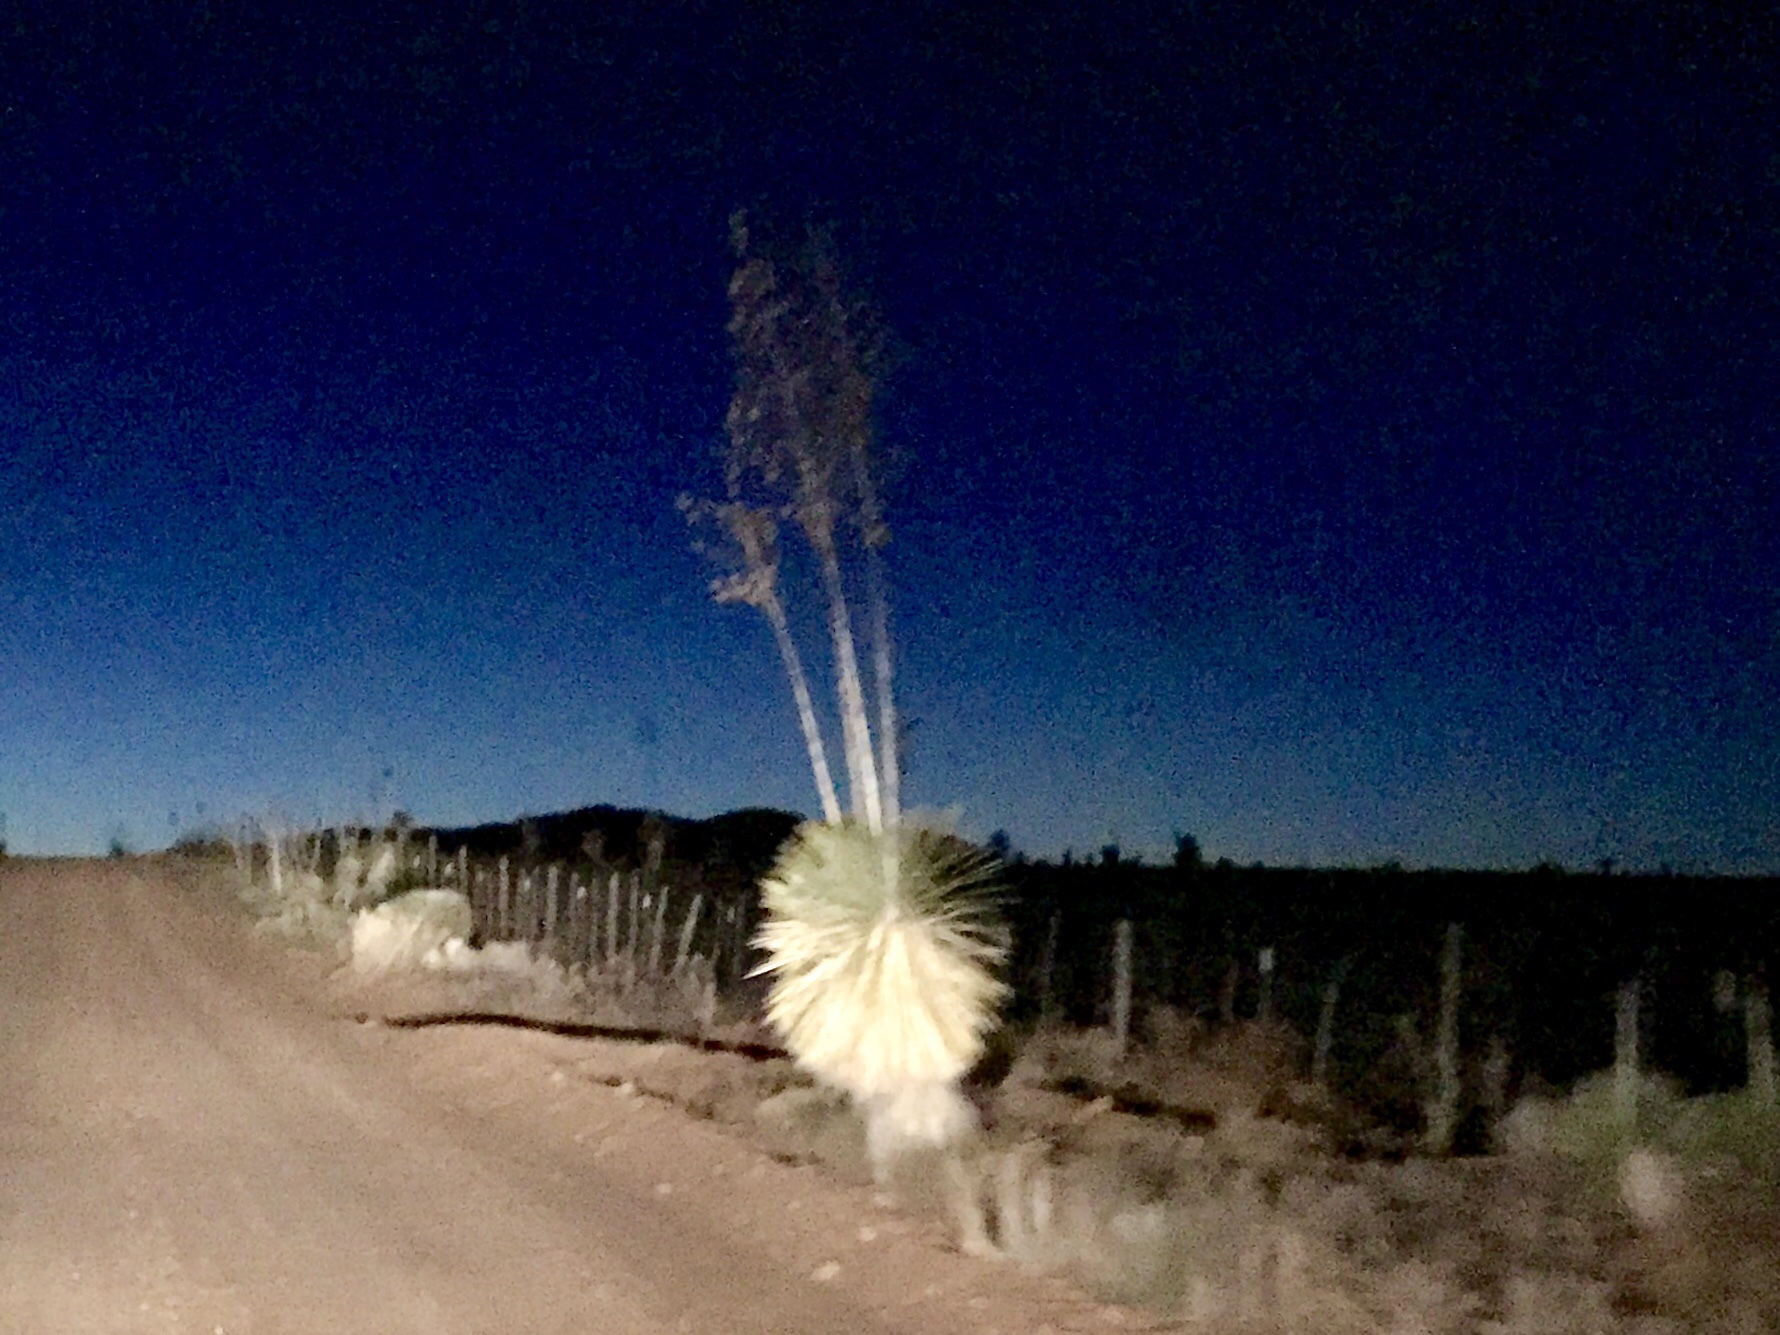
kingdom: Plantae
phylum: Tracheophyta
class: Liliopsida
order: Asparagales
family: Asparagaceae
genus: Yucca
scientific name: Yucca elata
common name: Palmella
